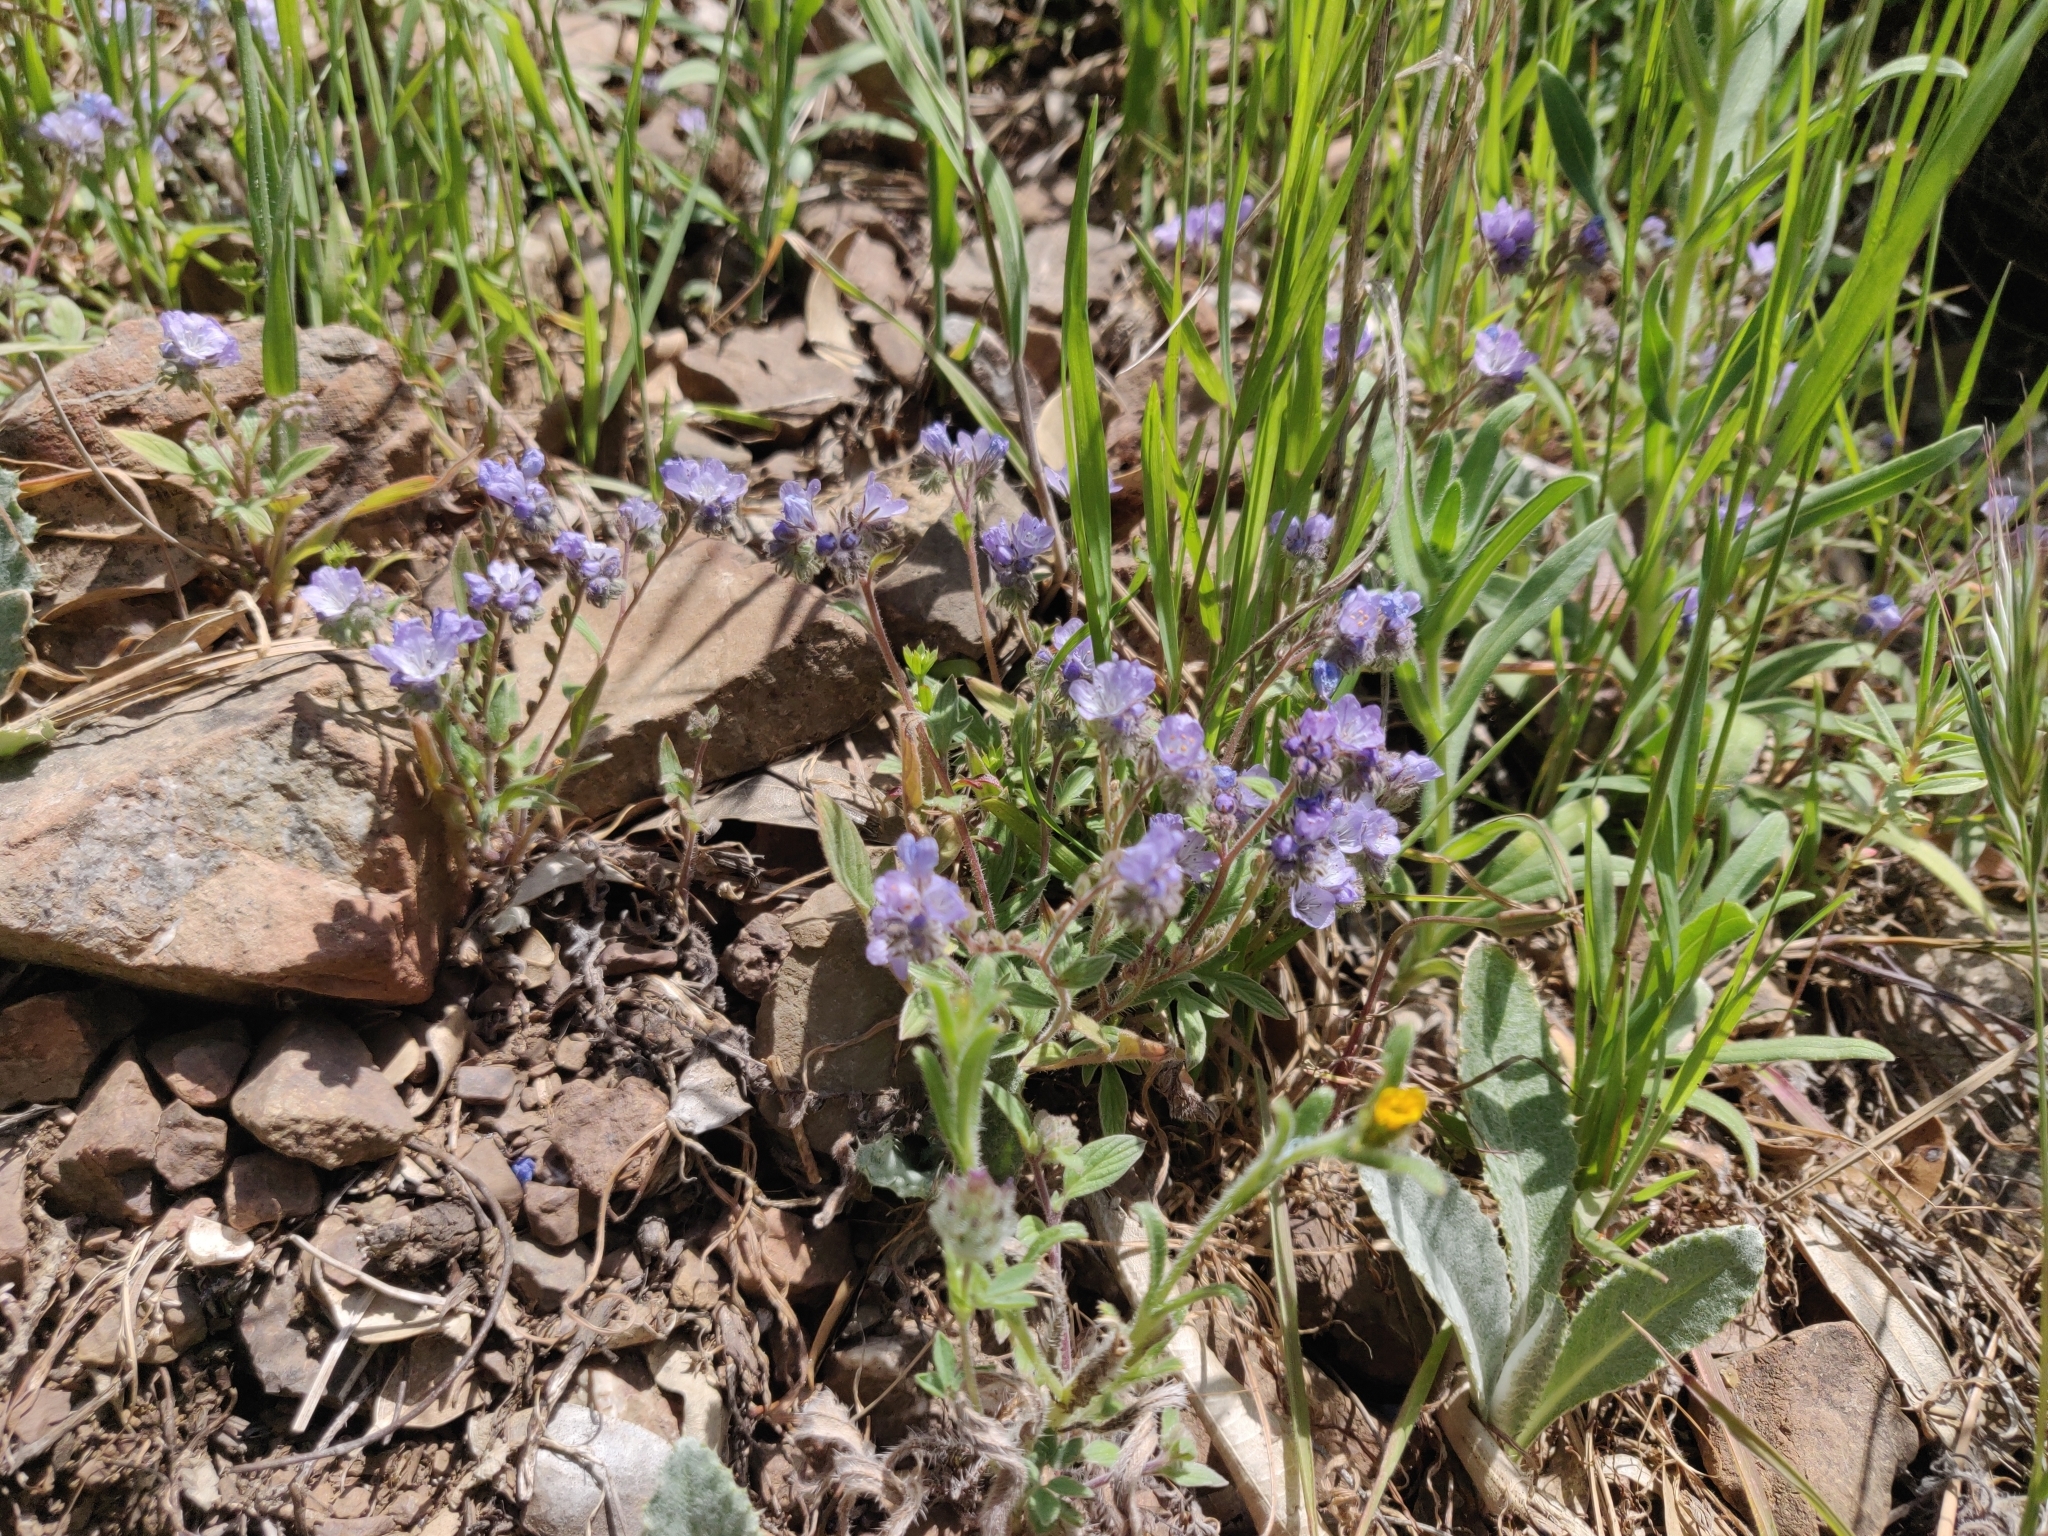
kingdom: Plantae
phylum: Tracheophyta
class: Magnoliopsida
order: Boraginales
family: Hydrophyllaceae
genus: Phacelia
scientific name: Phacelia breweri
